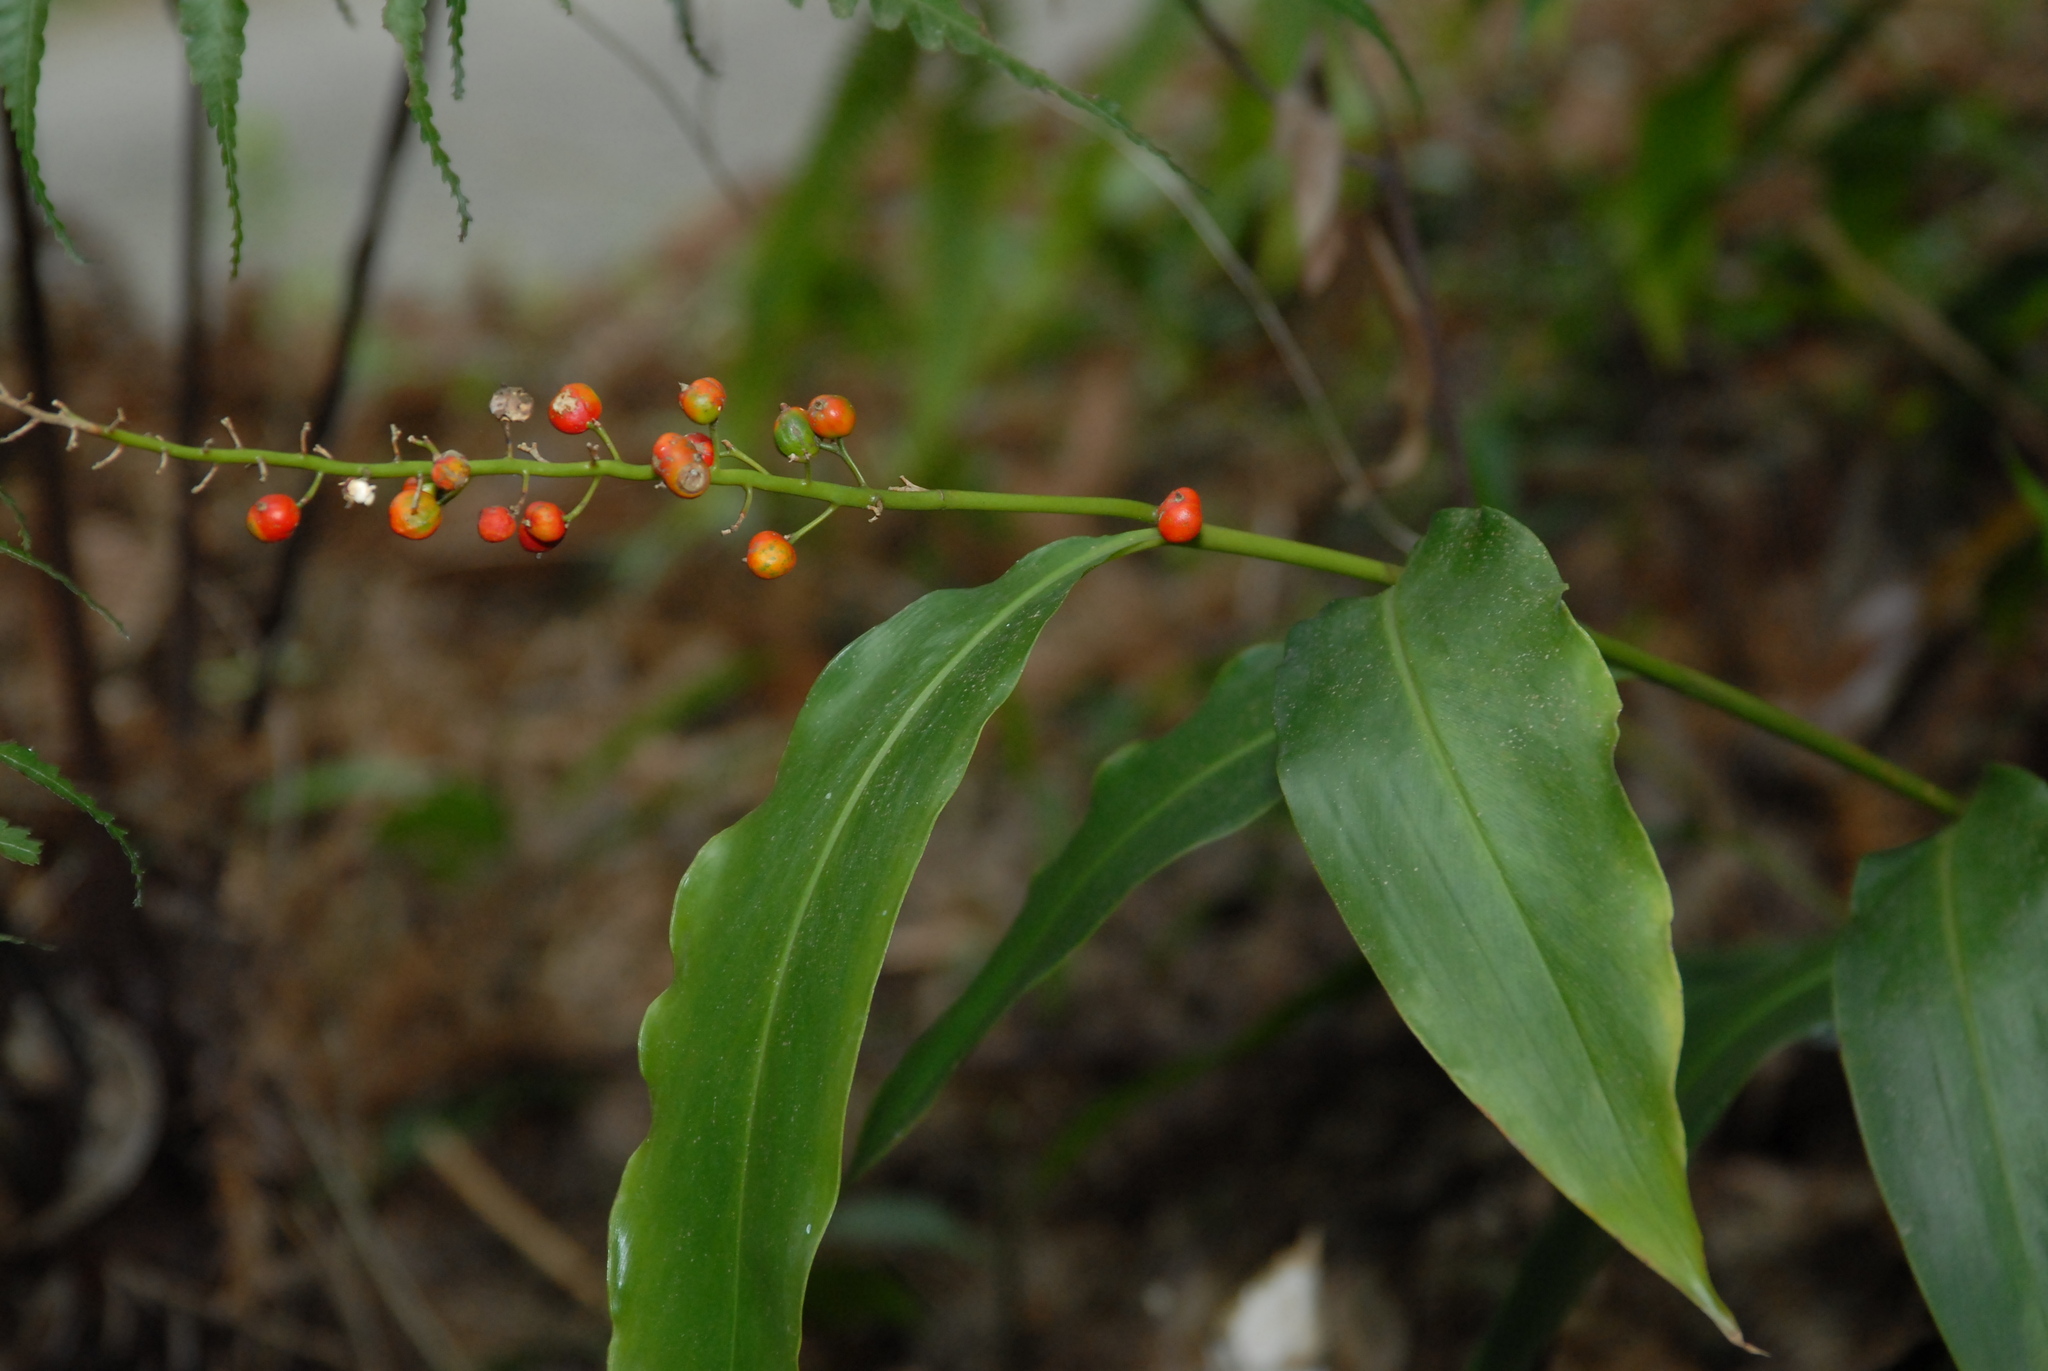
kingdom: Plantae
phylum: Tracheophyta
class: Liliopsida
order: Zingiberales
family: Zingiberaceae
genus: Alpinia
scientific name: Alpinia intermedia
